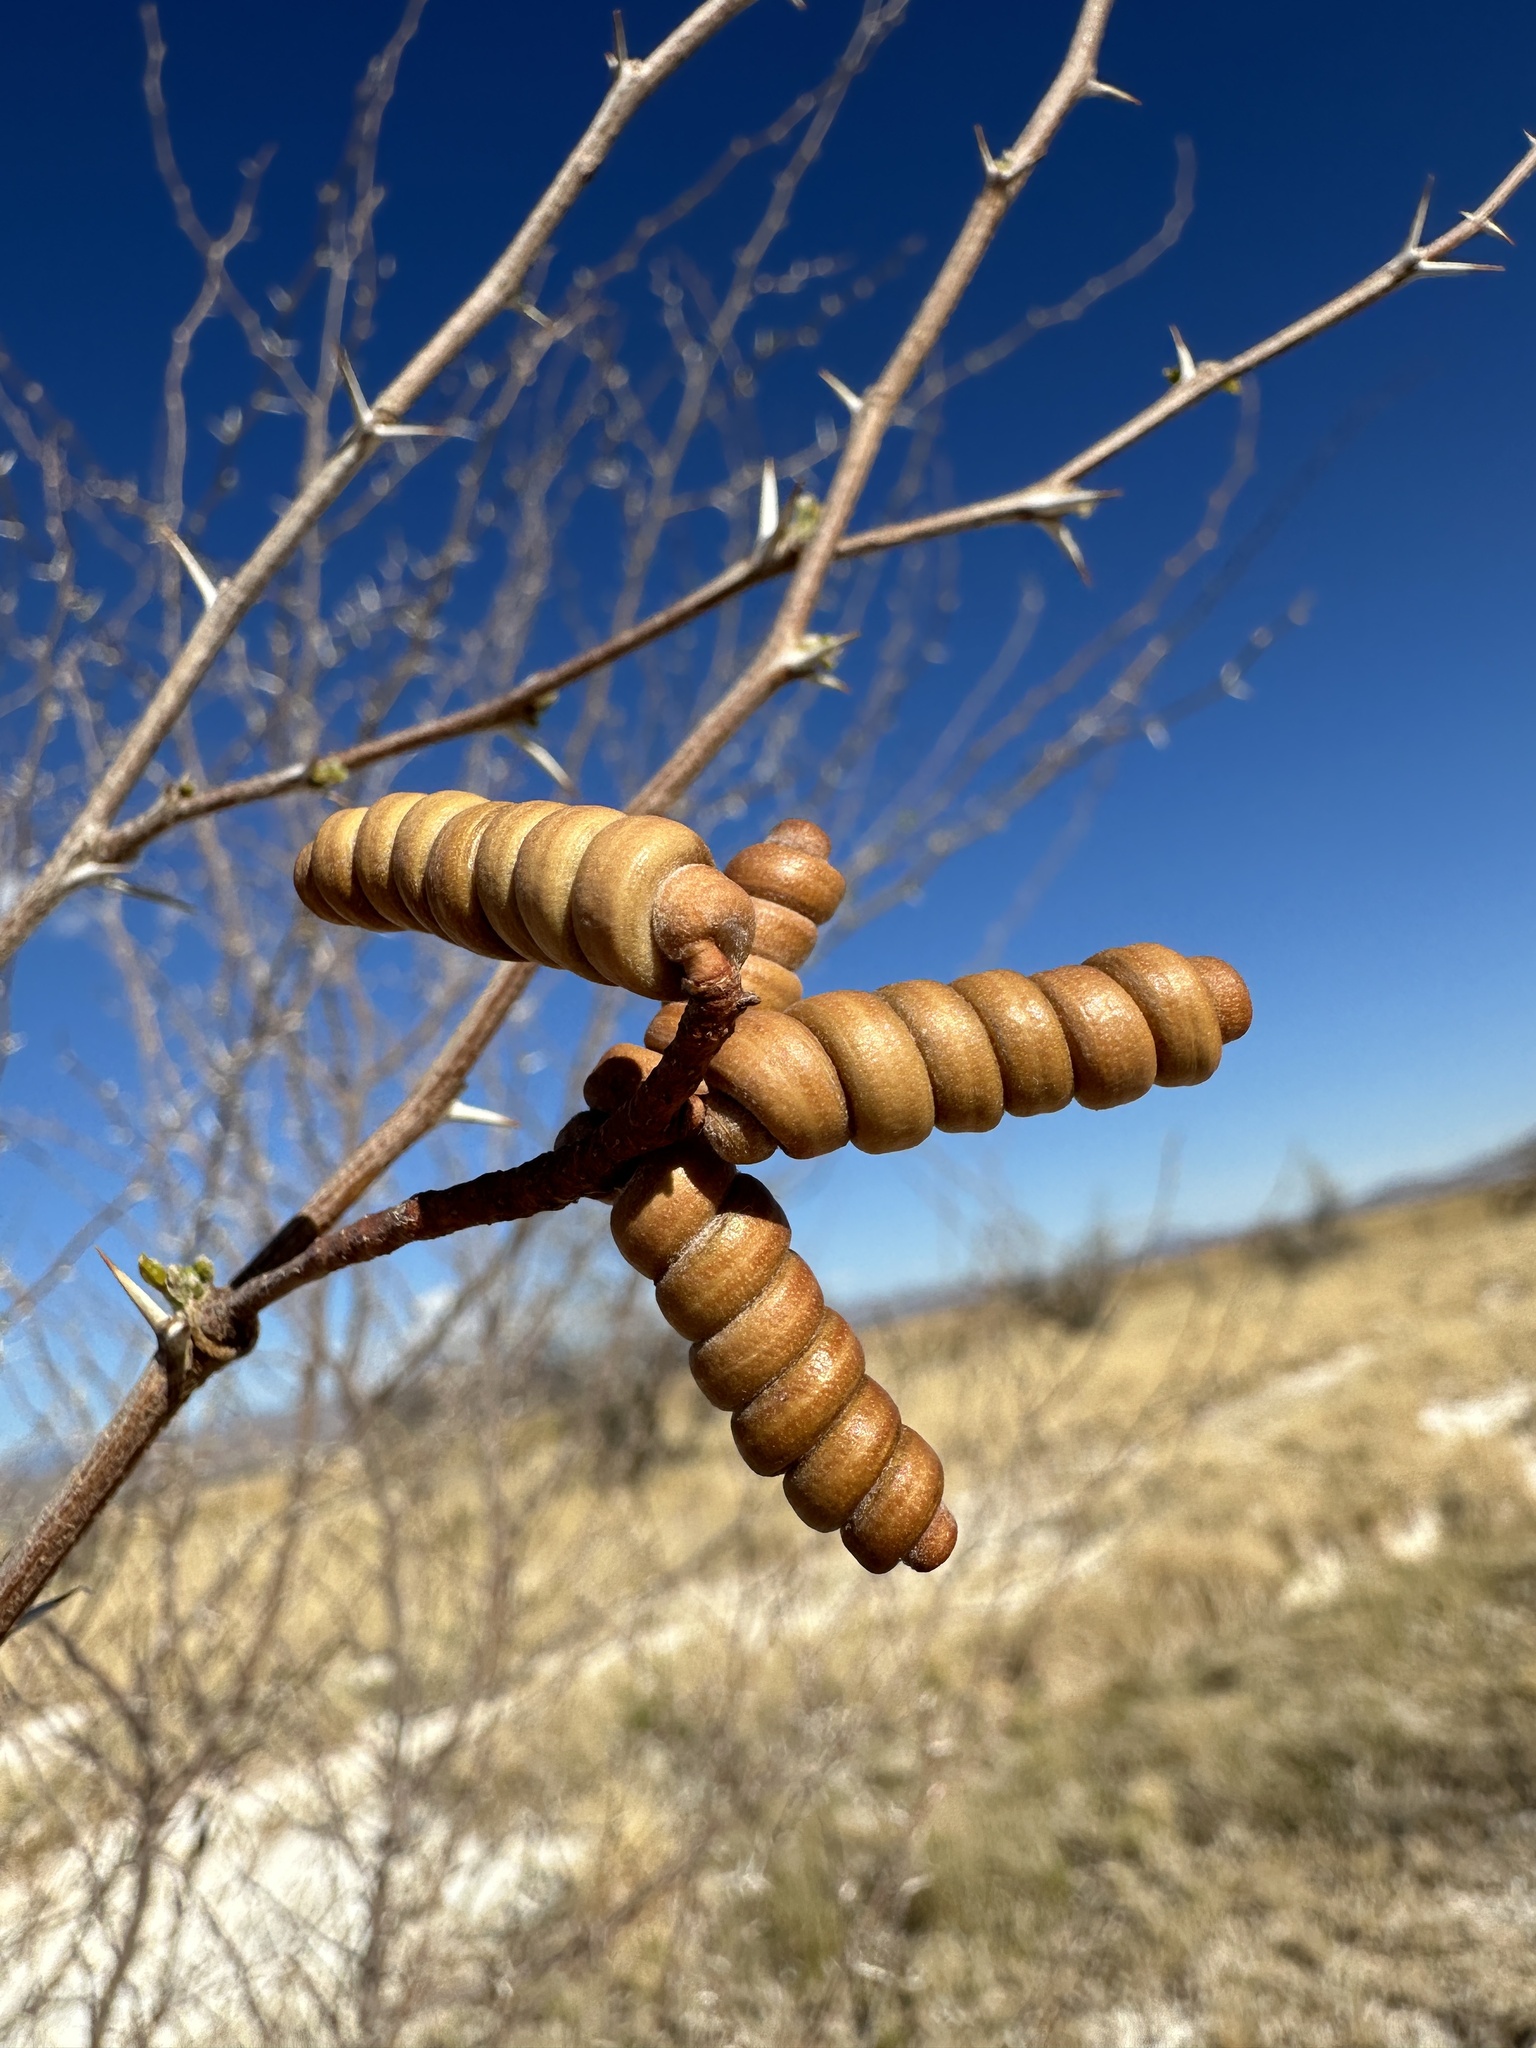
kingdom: Plantae
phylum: Tracheophyta
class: Magnoliopsida
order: Fabales
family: Fabaceae
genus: Prosopis
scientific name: Prosopis pubescens
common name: Screw-bean
